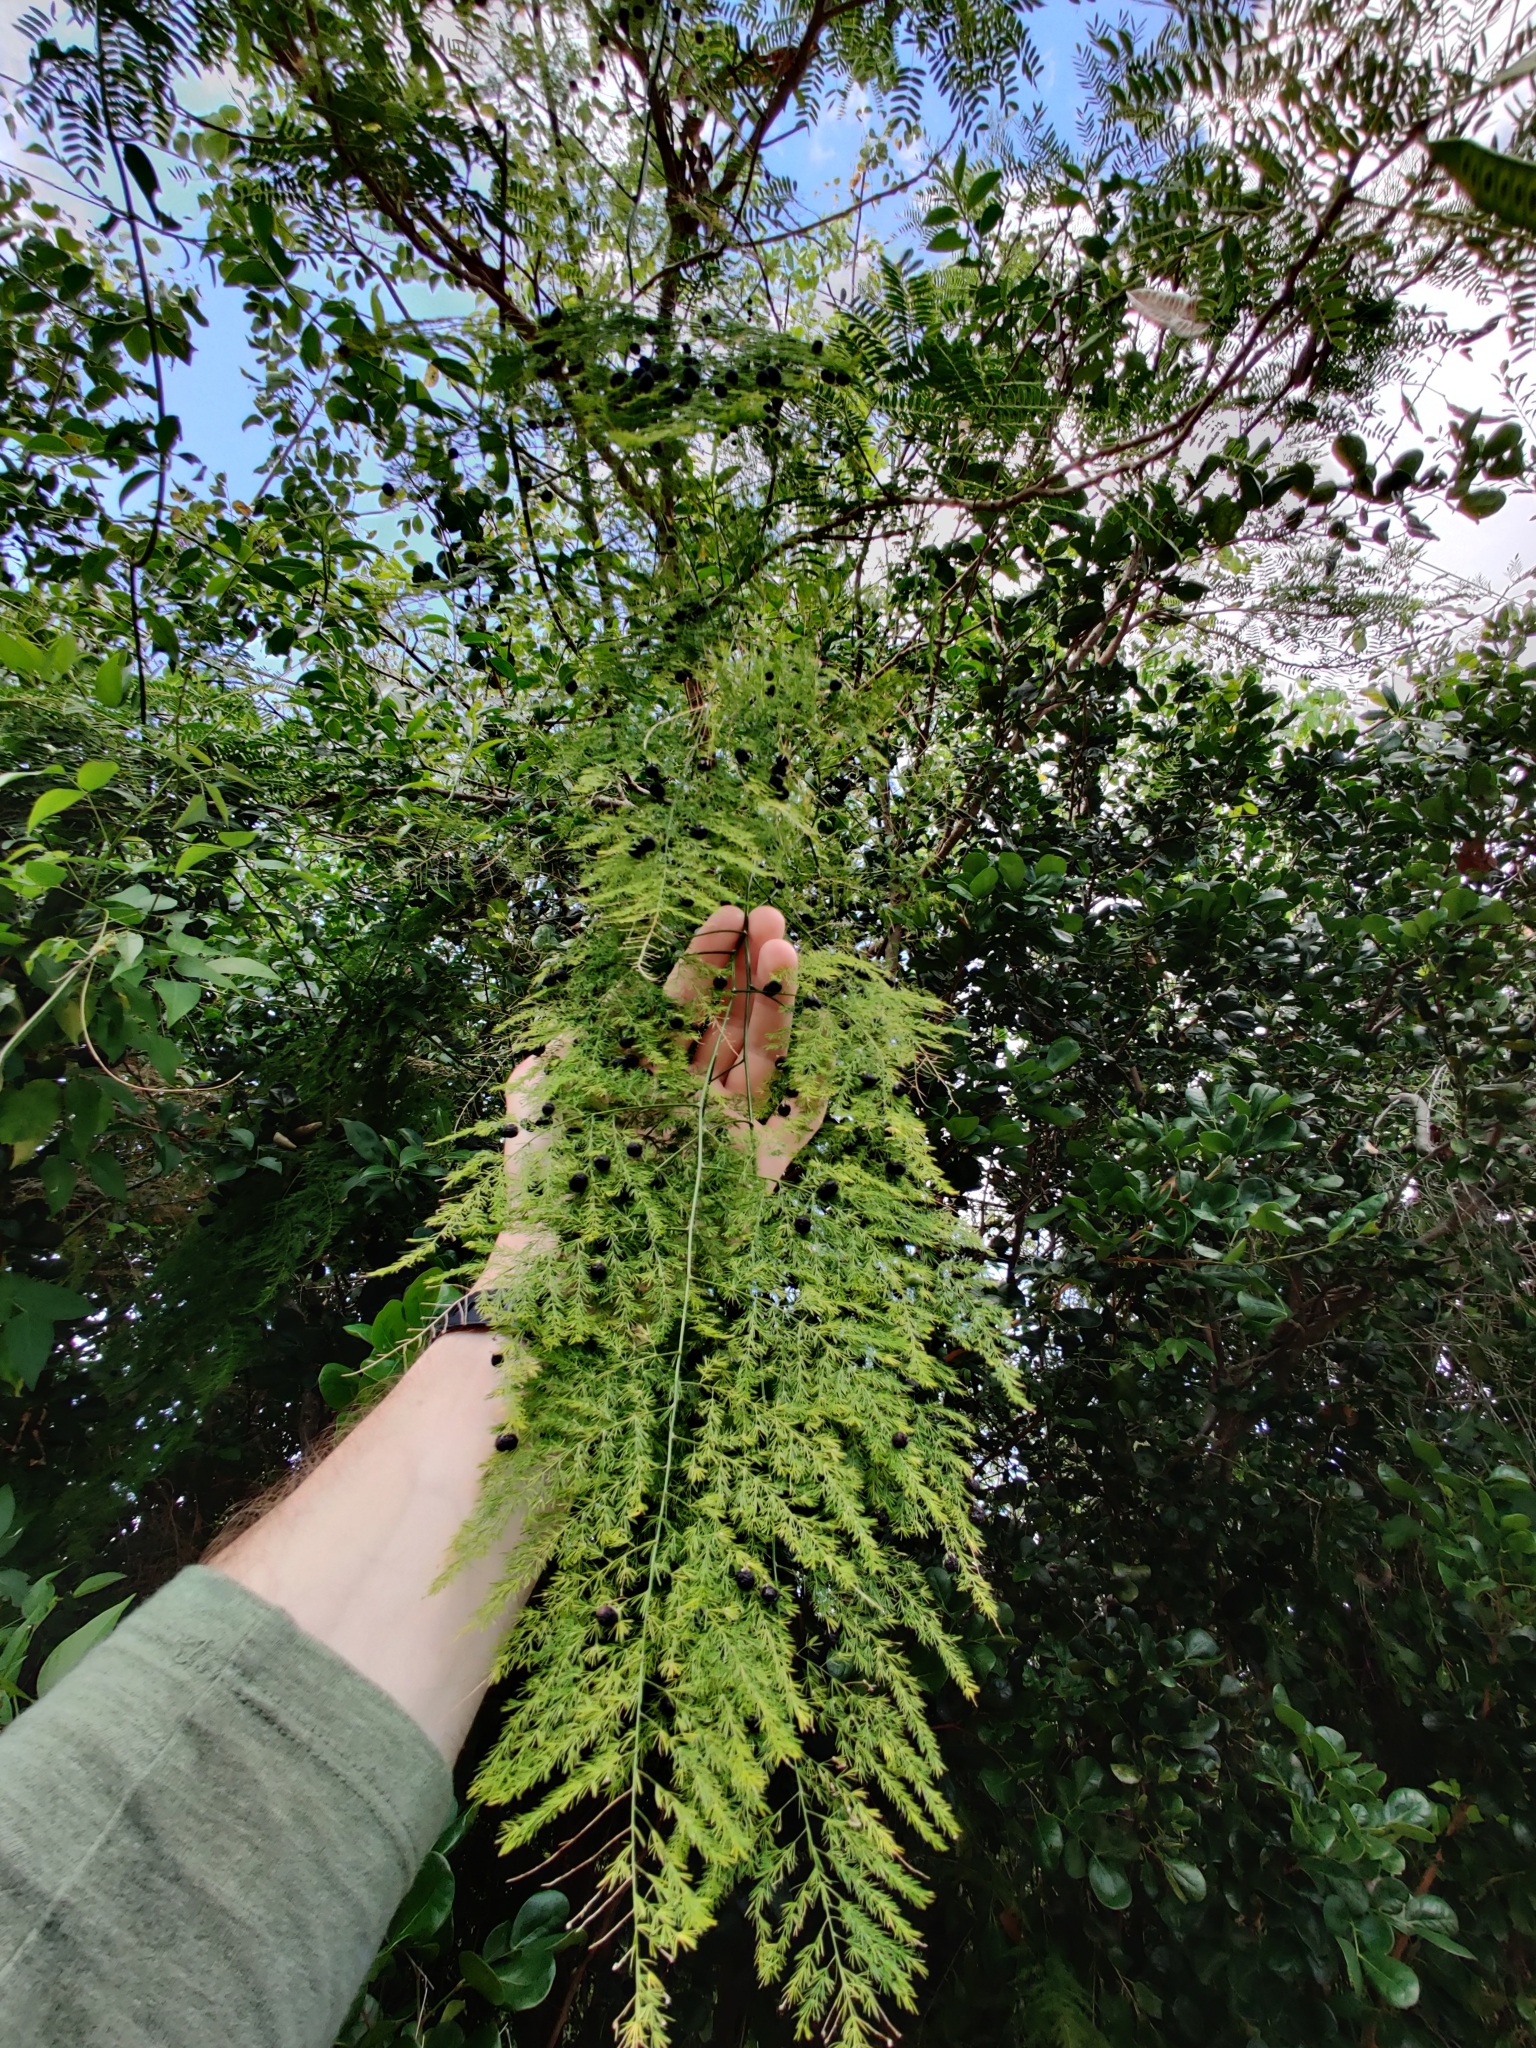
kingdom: Plantae
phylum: Tracheophyta
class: Liliopsida
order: Asparagales
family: Asparagaceae
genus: Asparagus
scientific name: Asparagus setaceus
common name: Common asparagus fern
